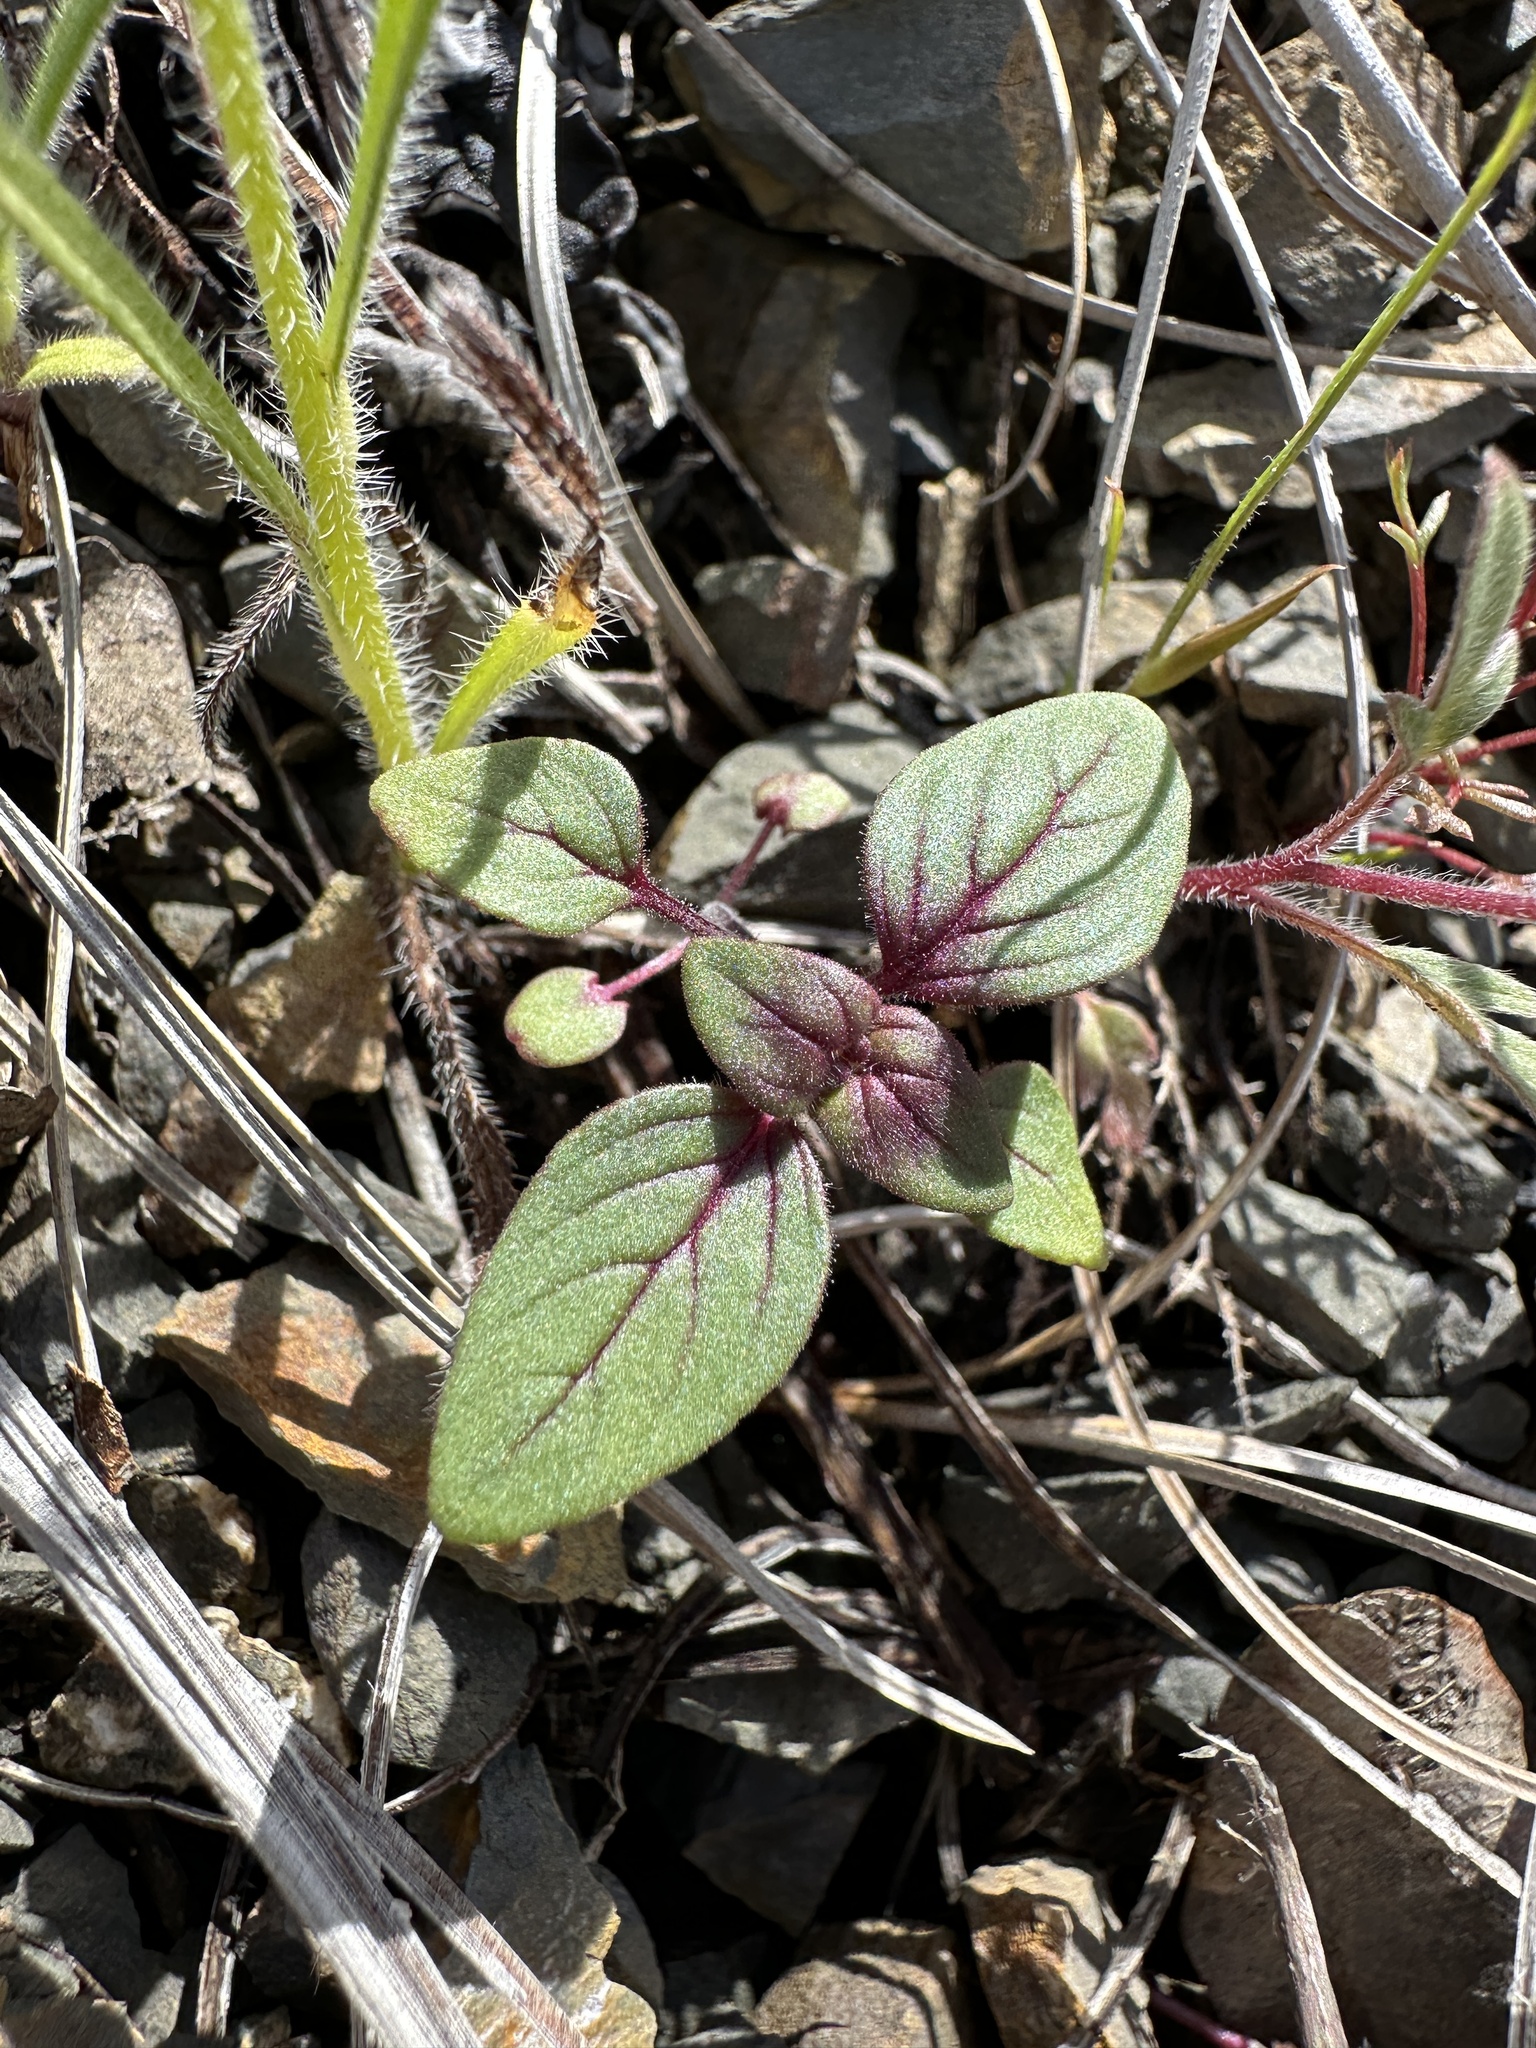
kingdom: Plantae
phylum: Tracheophyta
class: Magnoliopsida
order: Lamiales
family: Lamiaceae
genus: Acanthomintha
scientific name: Acanthomintha lanceolata
